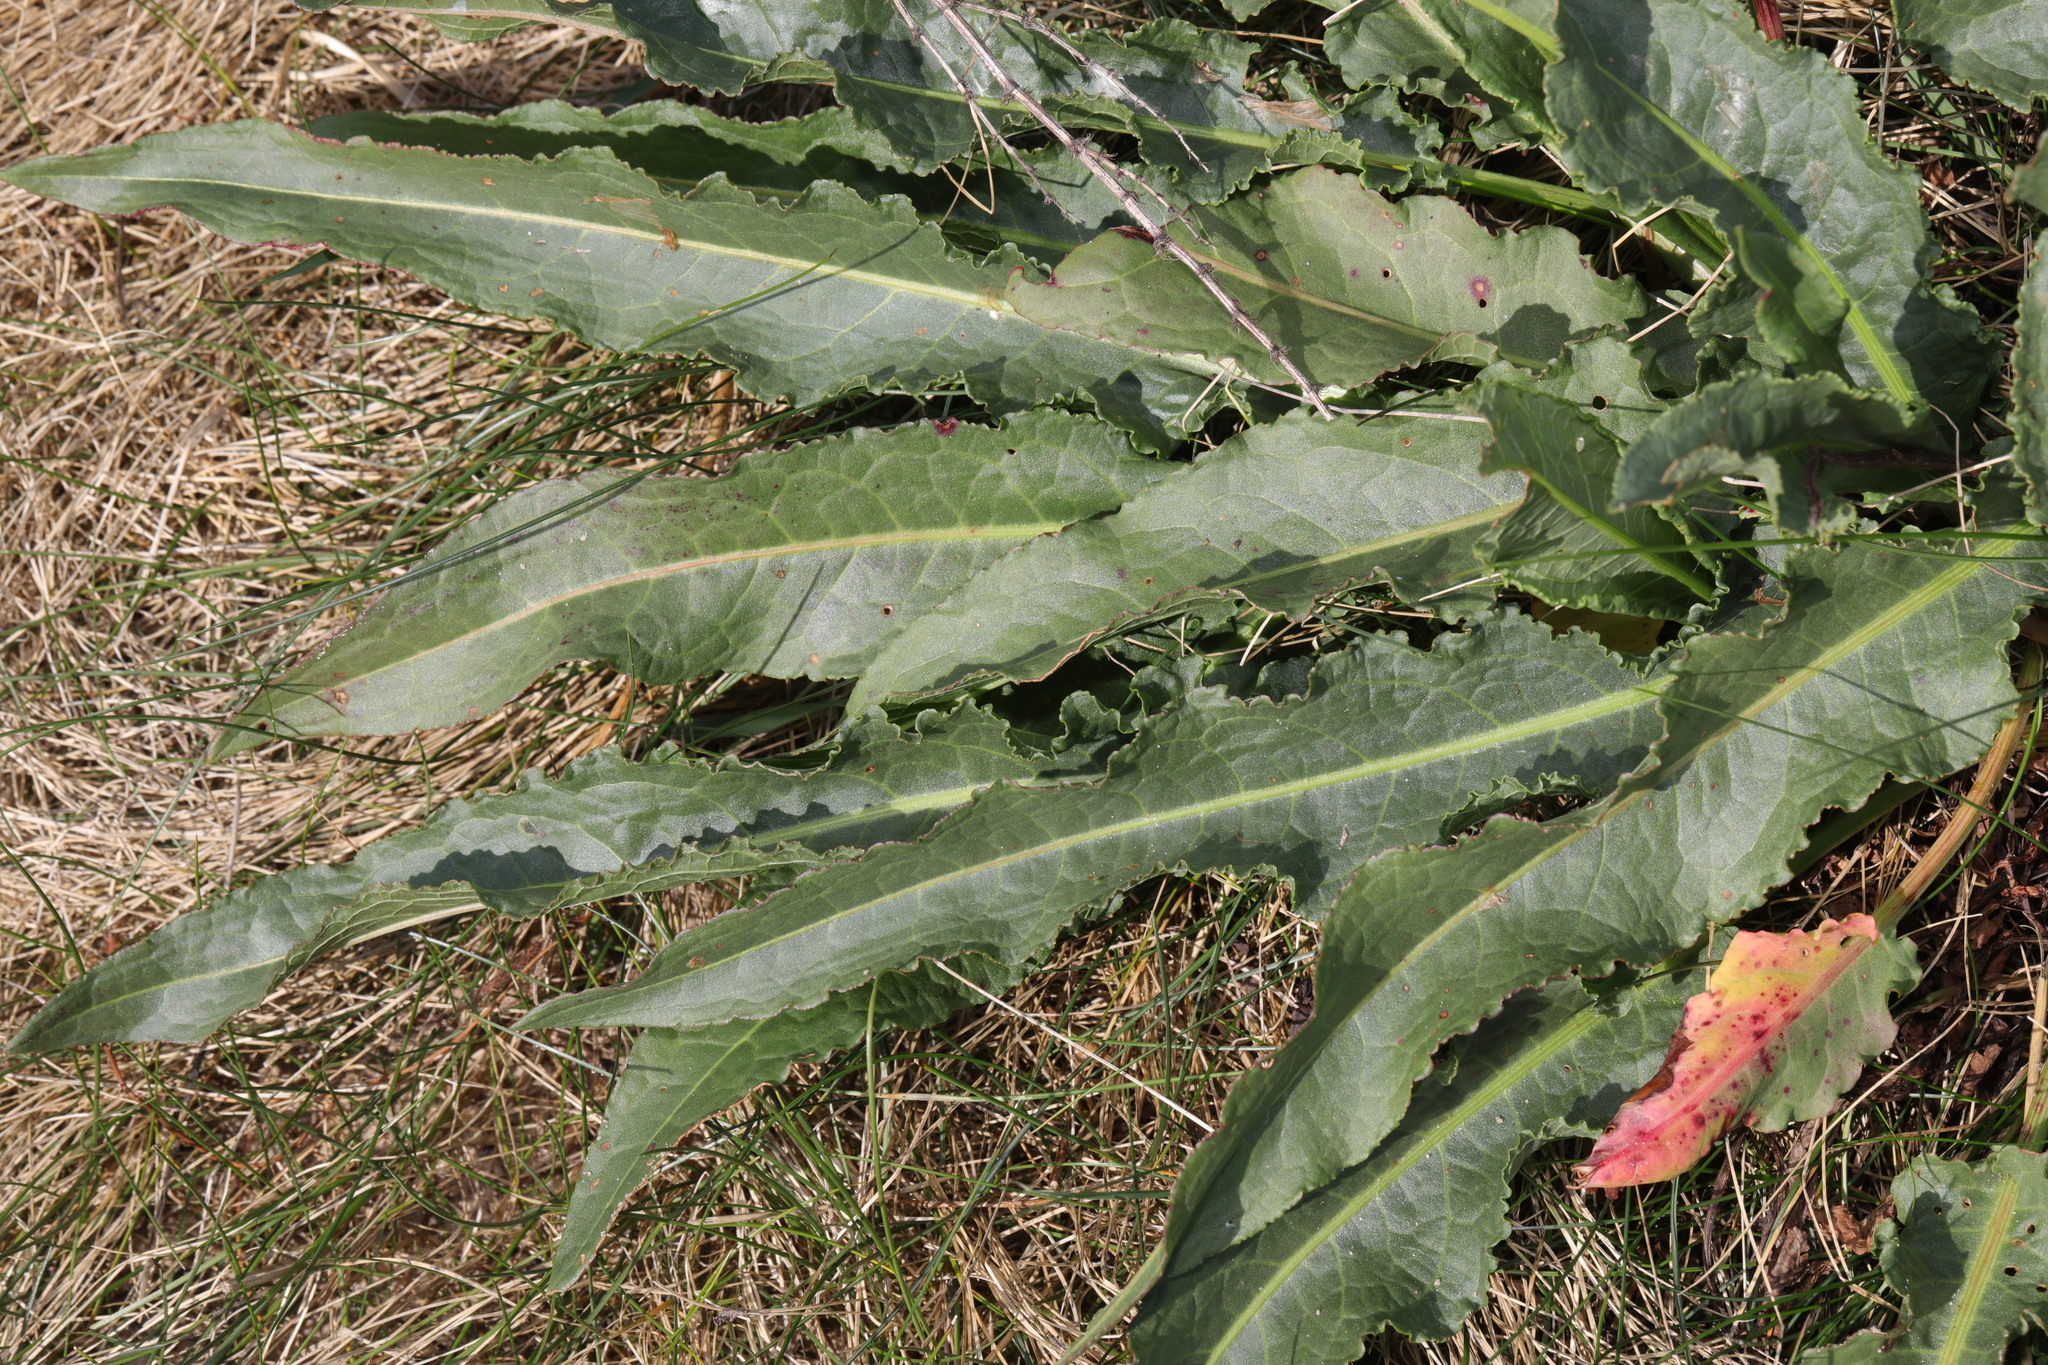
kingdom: Plantae
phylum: Tracheophyta
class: Magnoliopsida
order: Caryophyllales
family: Polygonaceae
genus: Rumex
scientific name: Rumex crispus
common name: Curled dock
